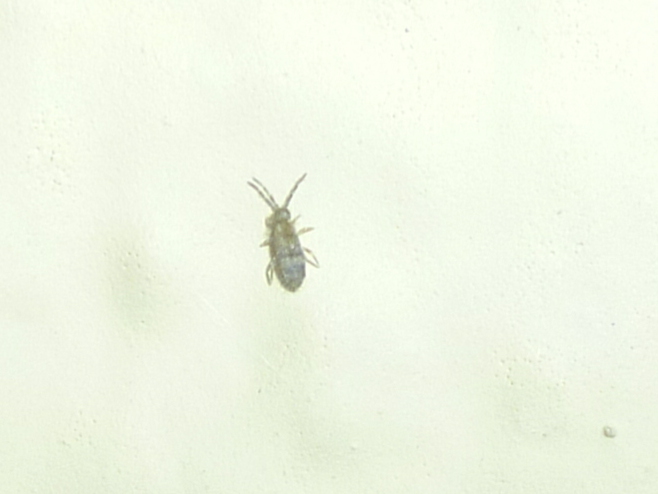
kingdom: Animalia
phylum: Arthropoda
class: Collembola
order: Entomobryomorpha
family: Entomobryidae
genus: Entomobrya
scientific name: Entomobrya assuta
